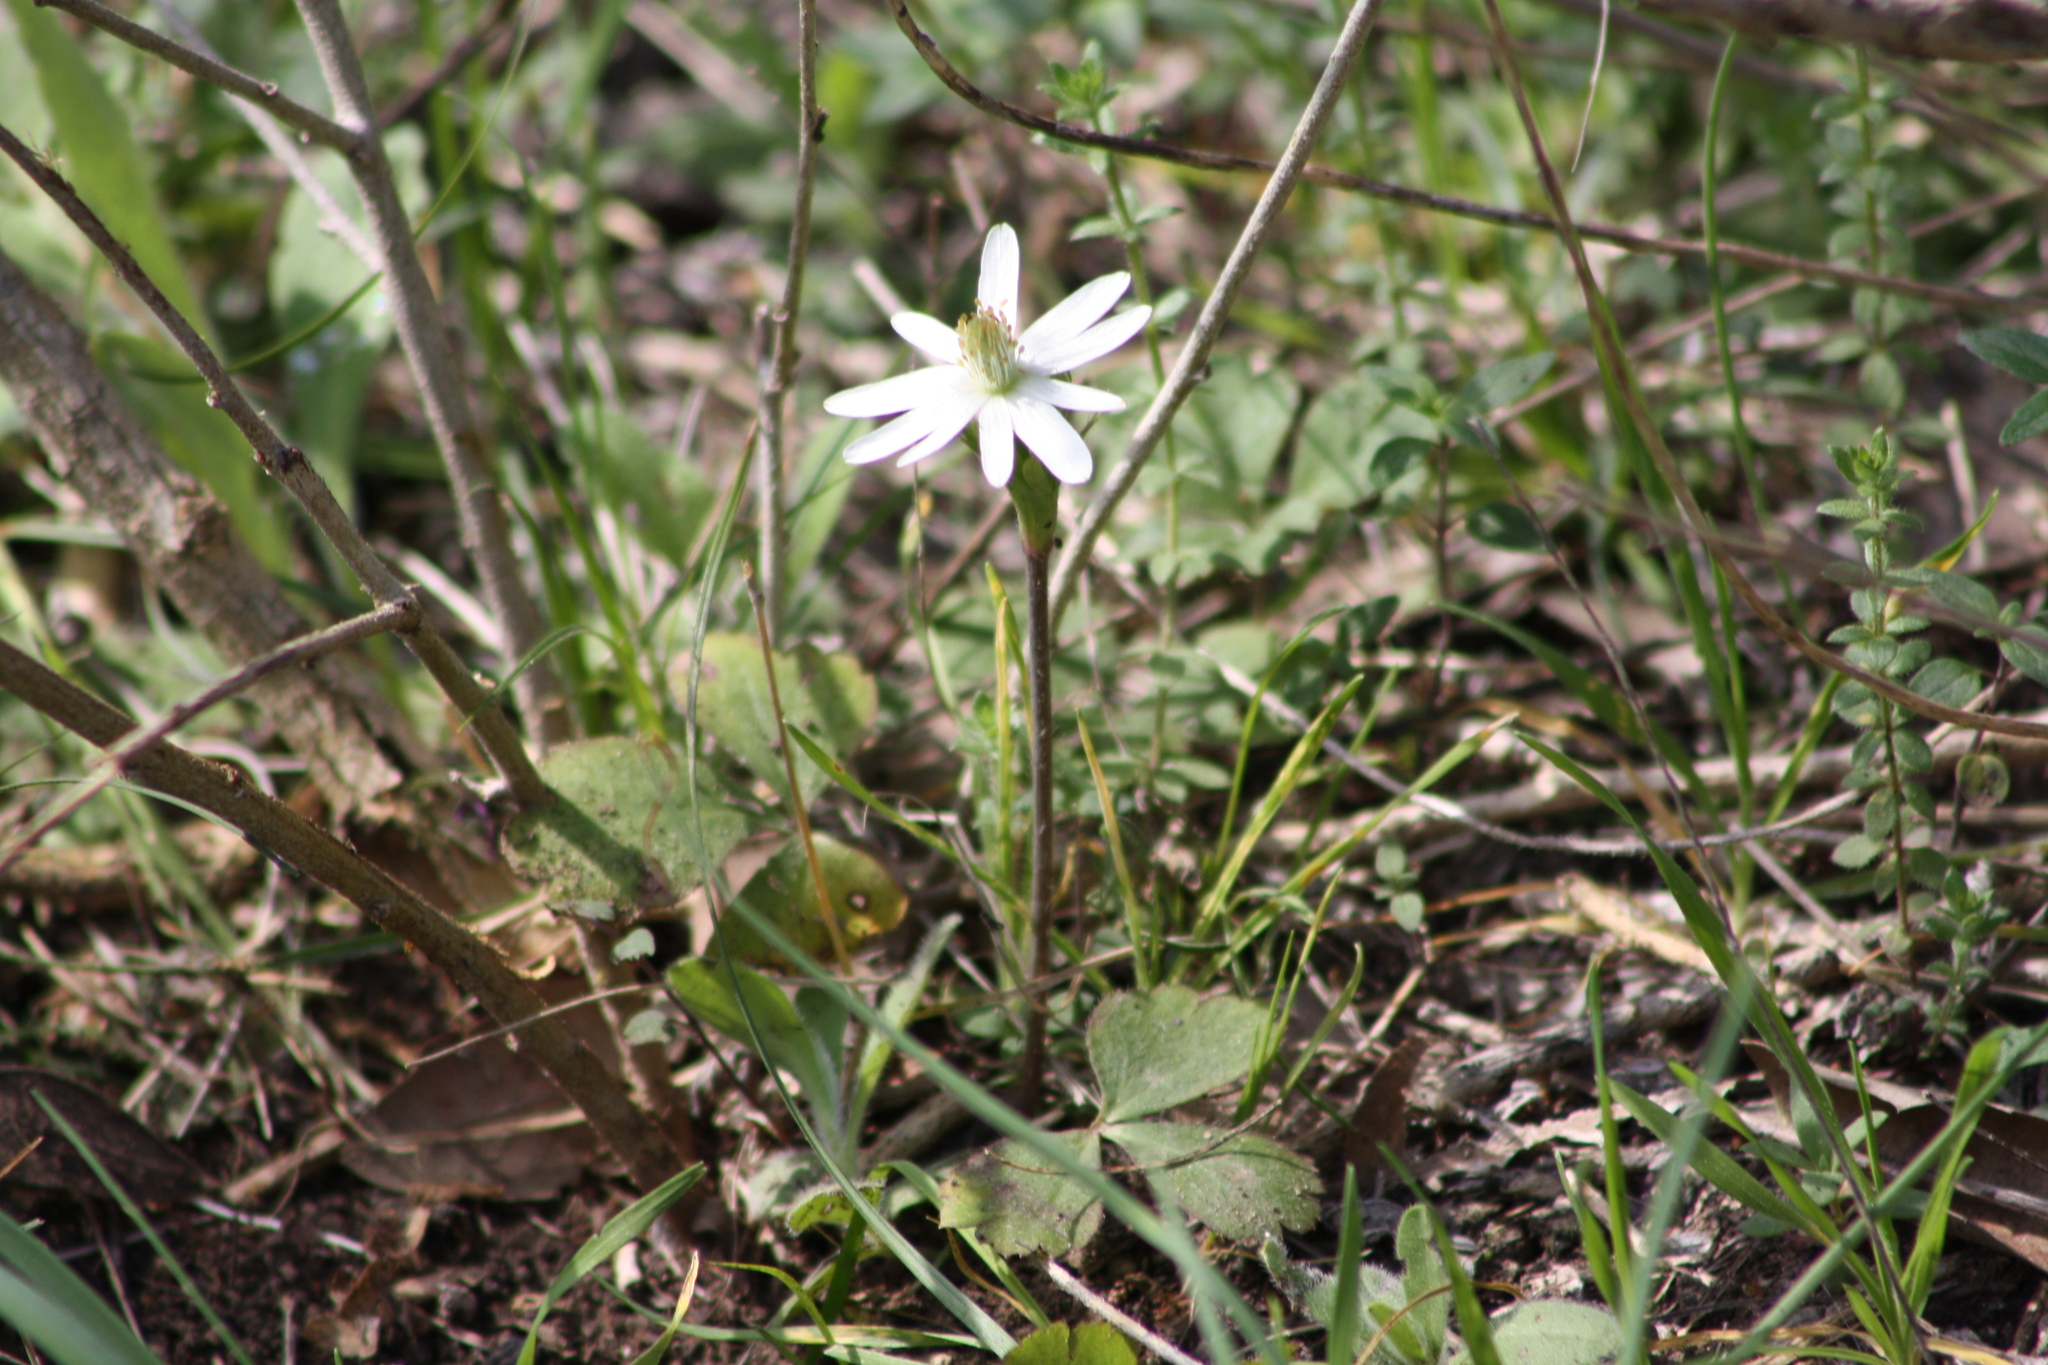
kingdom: Plantae
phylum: Tracheophyta
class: Magnoliopsida
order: Ranunculales
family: Ranunculaceae
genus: Anemone
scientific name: Anemone berlandieri
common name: Ten-petal anemone
